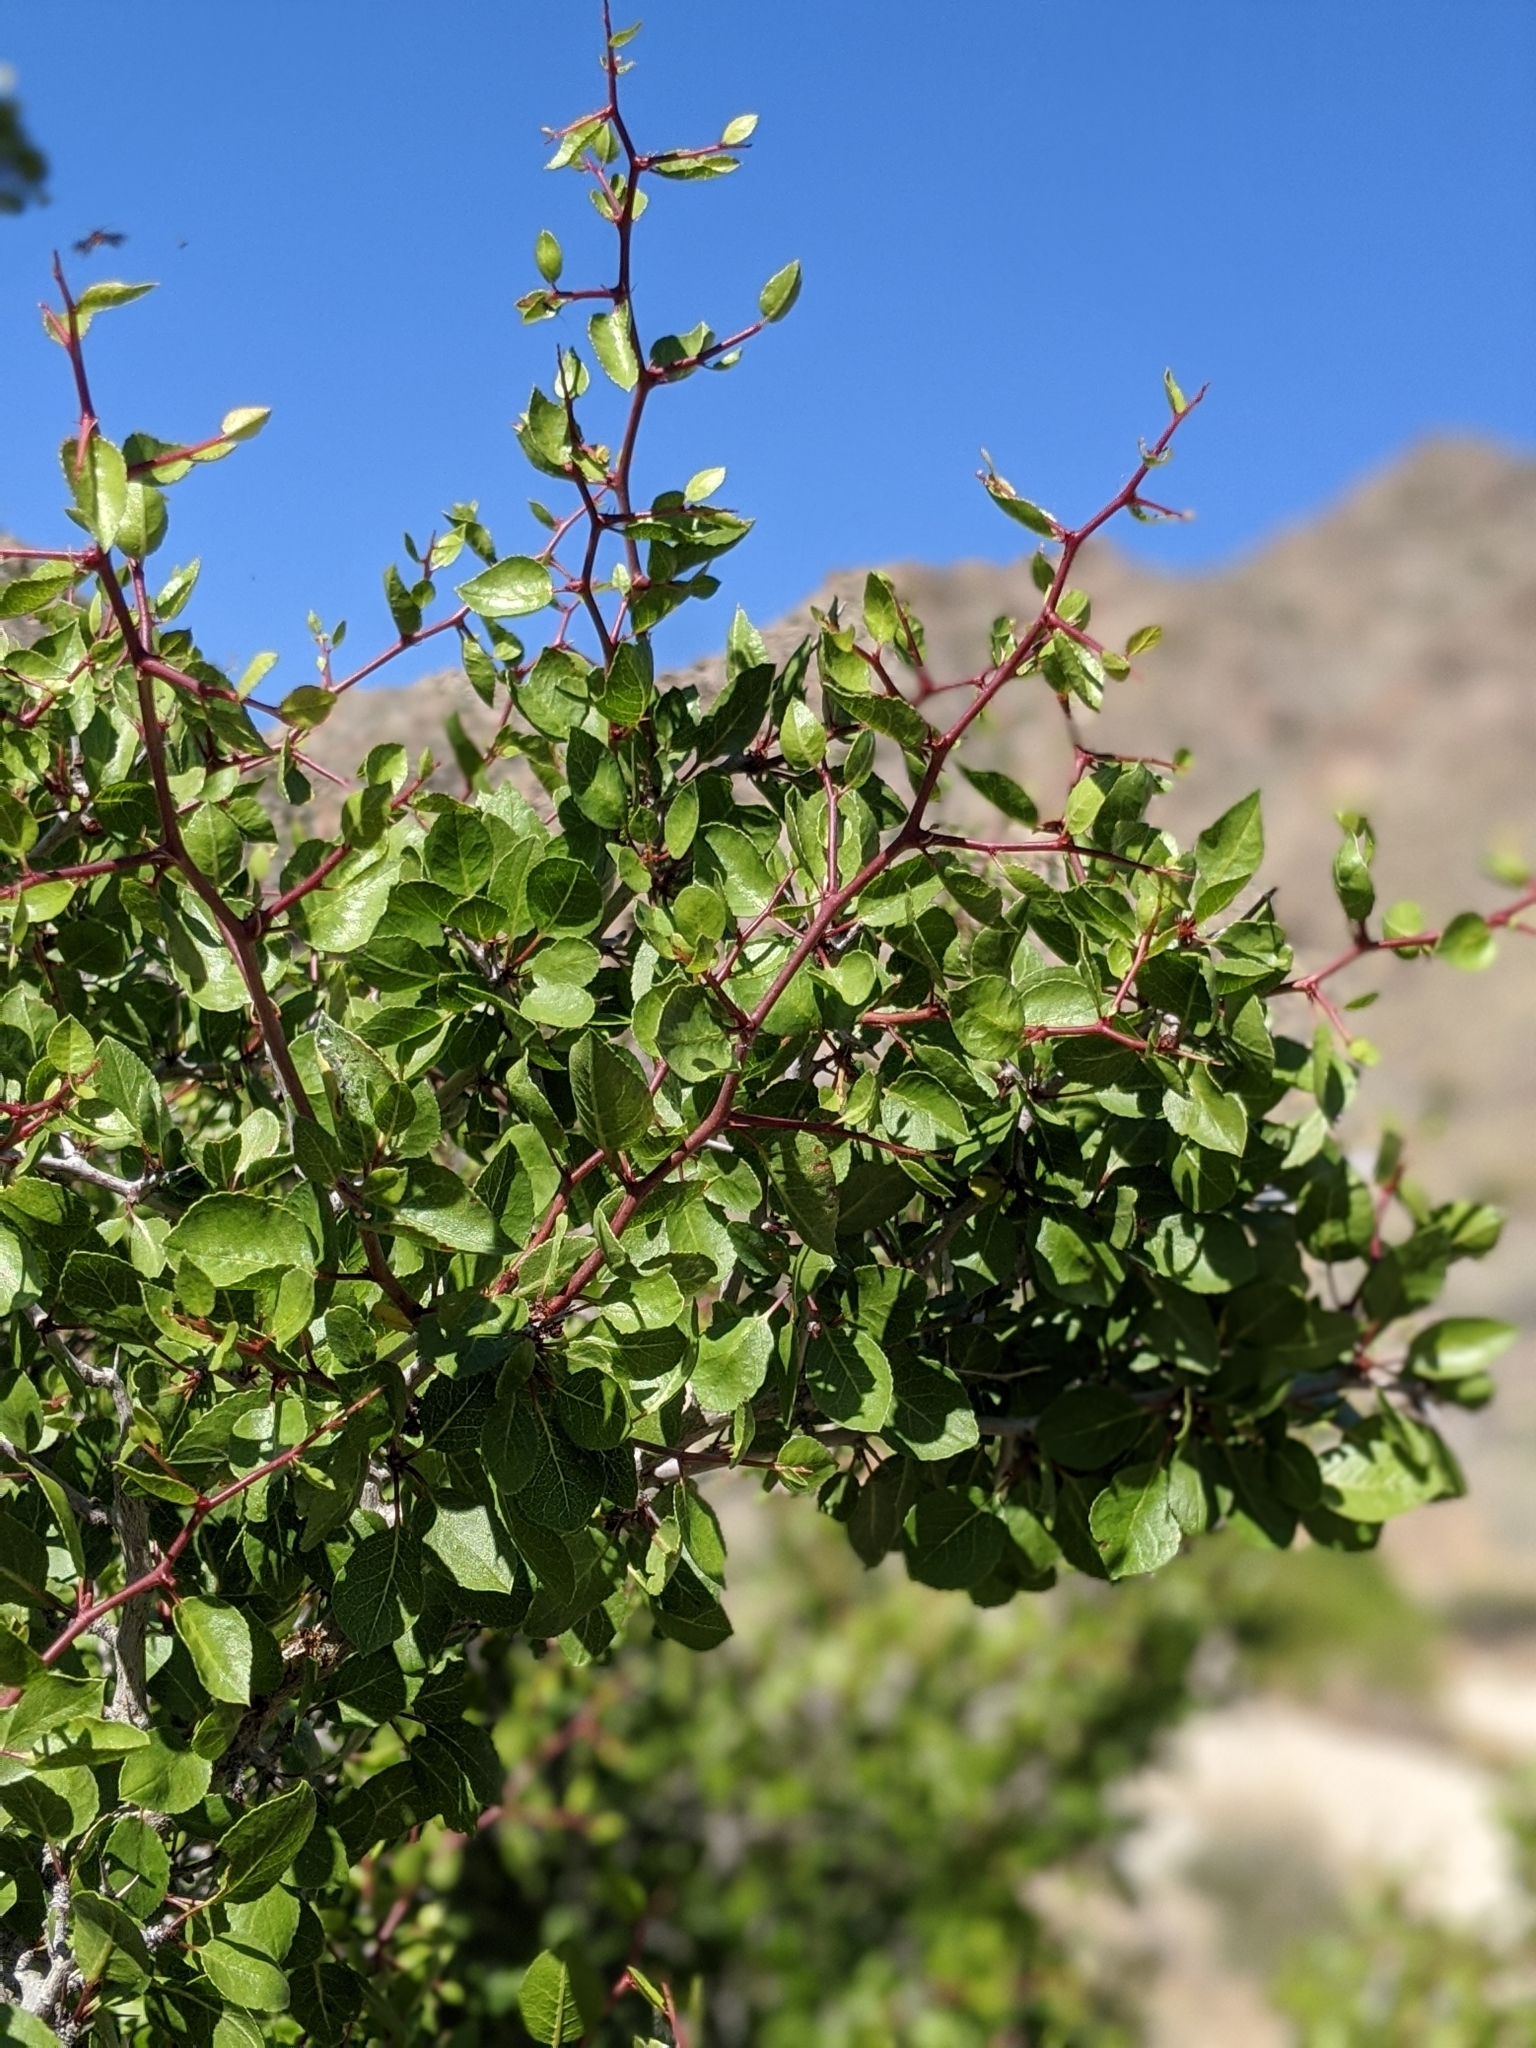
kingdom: Plantae
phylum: Tracheophyta
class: Magnoliopsida
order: Rosales
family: Rosaceae
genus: Prunus
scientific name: Prunus fremontii
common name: Desert apricot
